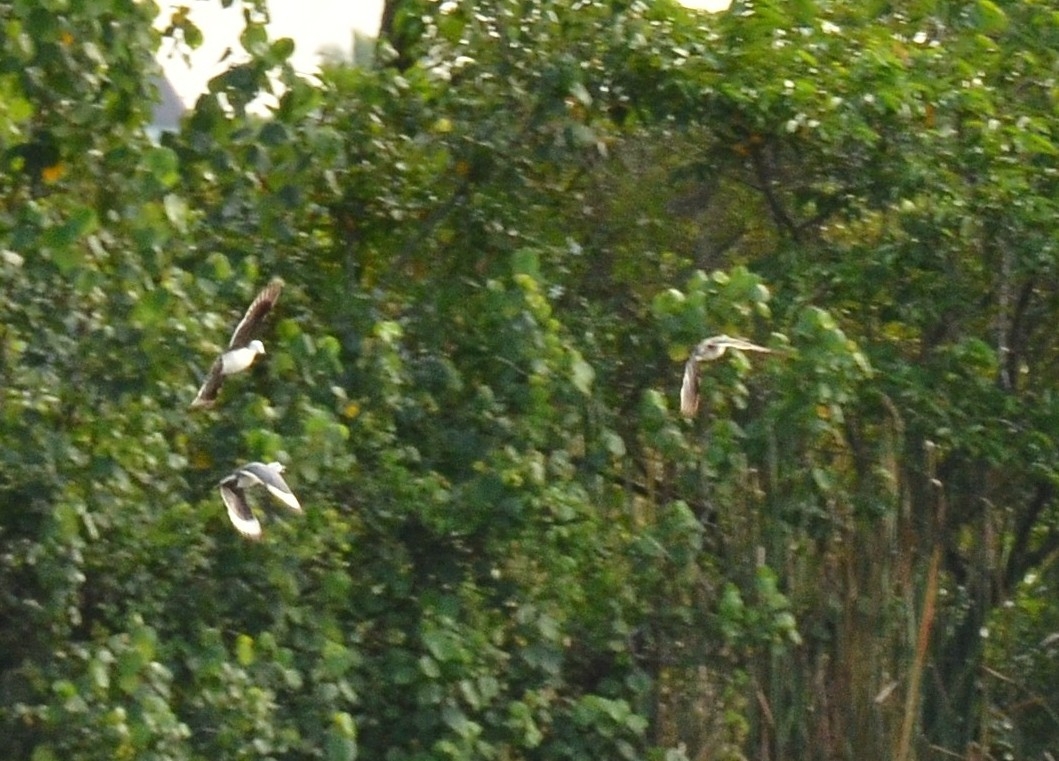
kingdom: Animalia
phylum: Chordata
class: Aves
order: Anseriformes
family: Anatidae
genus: Nettapus
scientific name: Nettapus coromandelianus
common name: Cotton pygmy-goose
